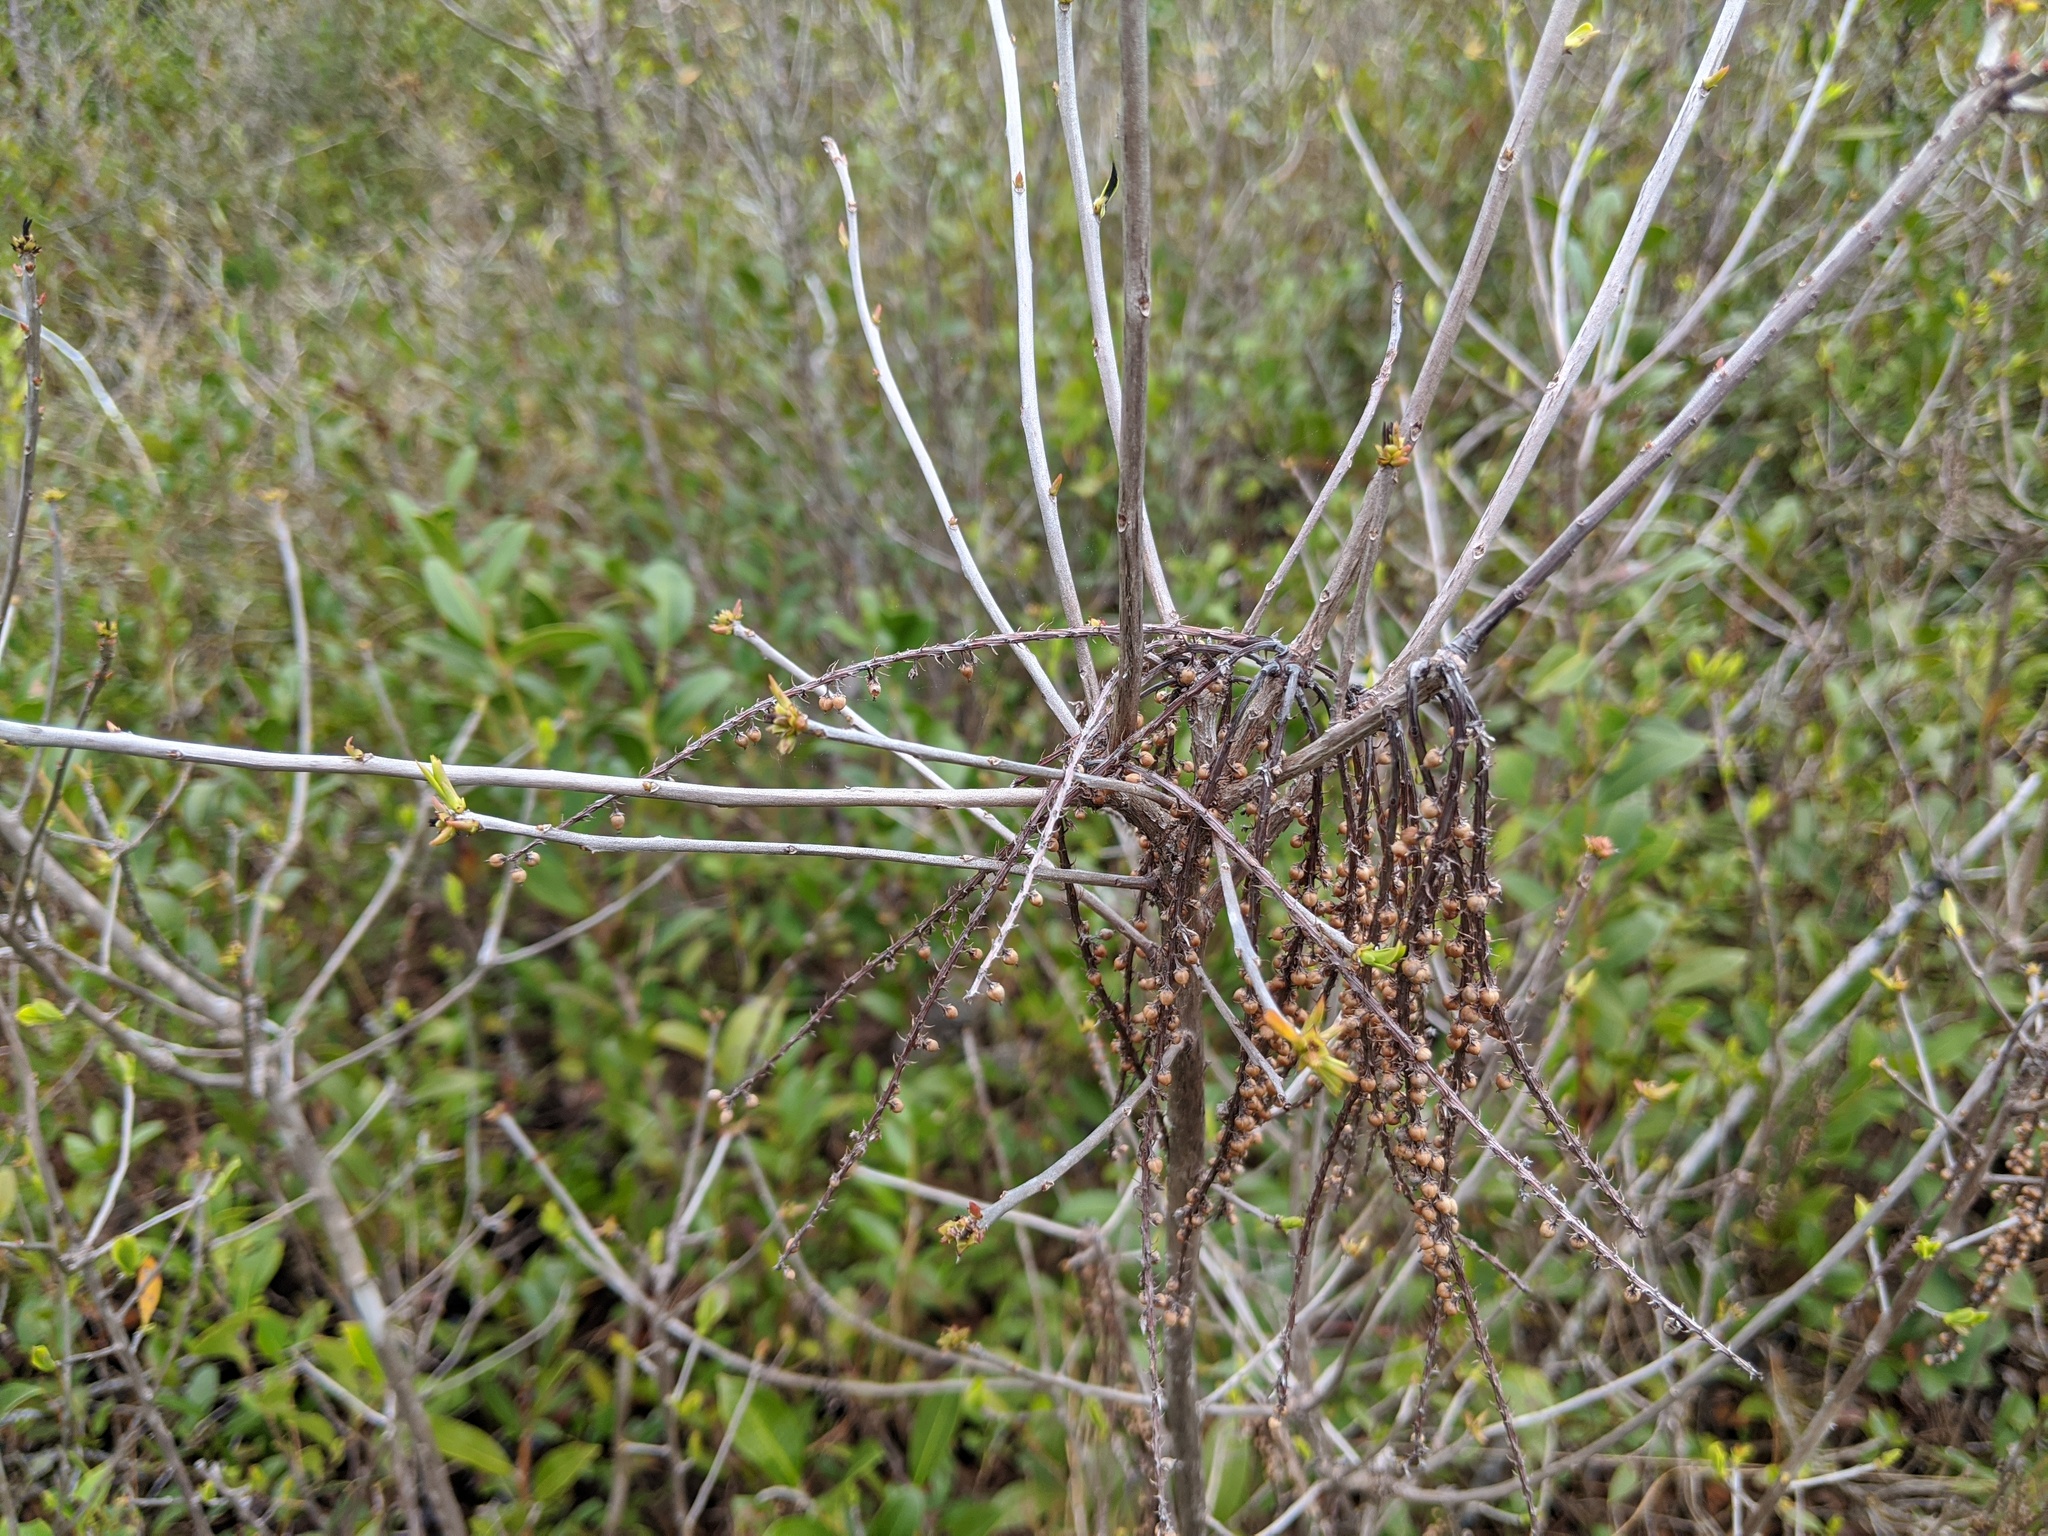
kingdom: Plantae
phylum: Tracheophyta
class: Magnoliopsida
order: Ericales
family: Cyrillaceae
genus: Cyrilla
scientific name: Cyrilla racemiflora
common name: Black titi
